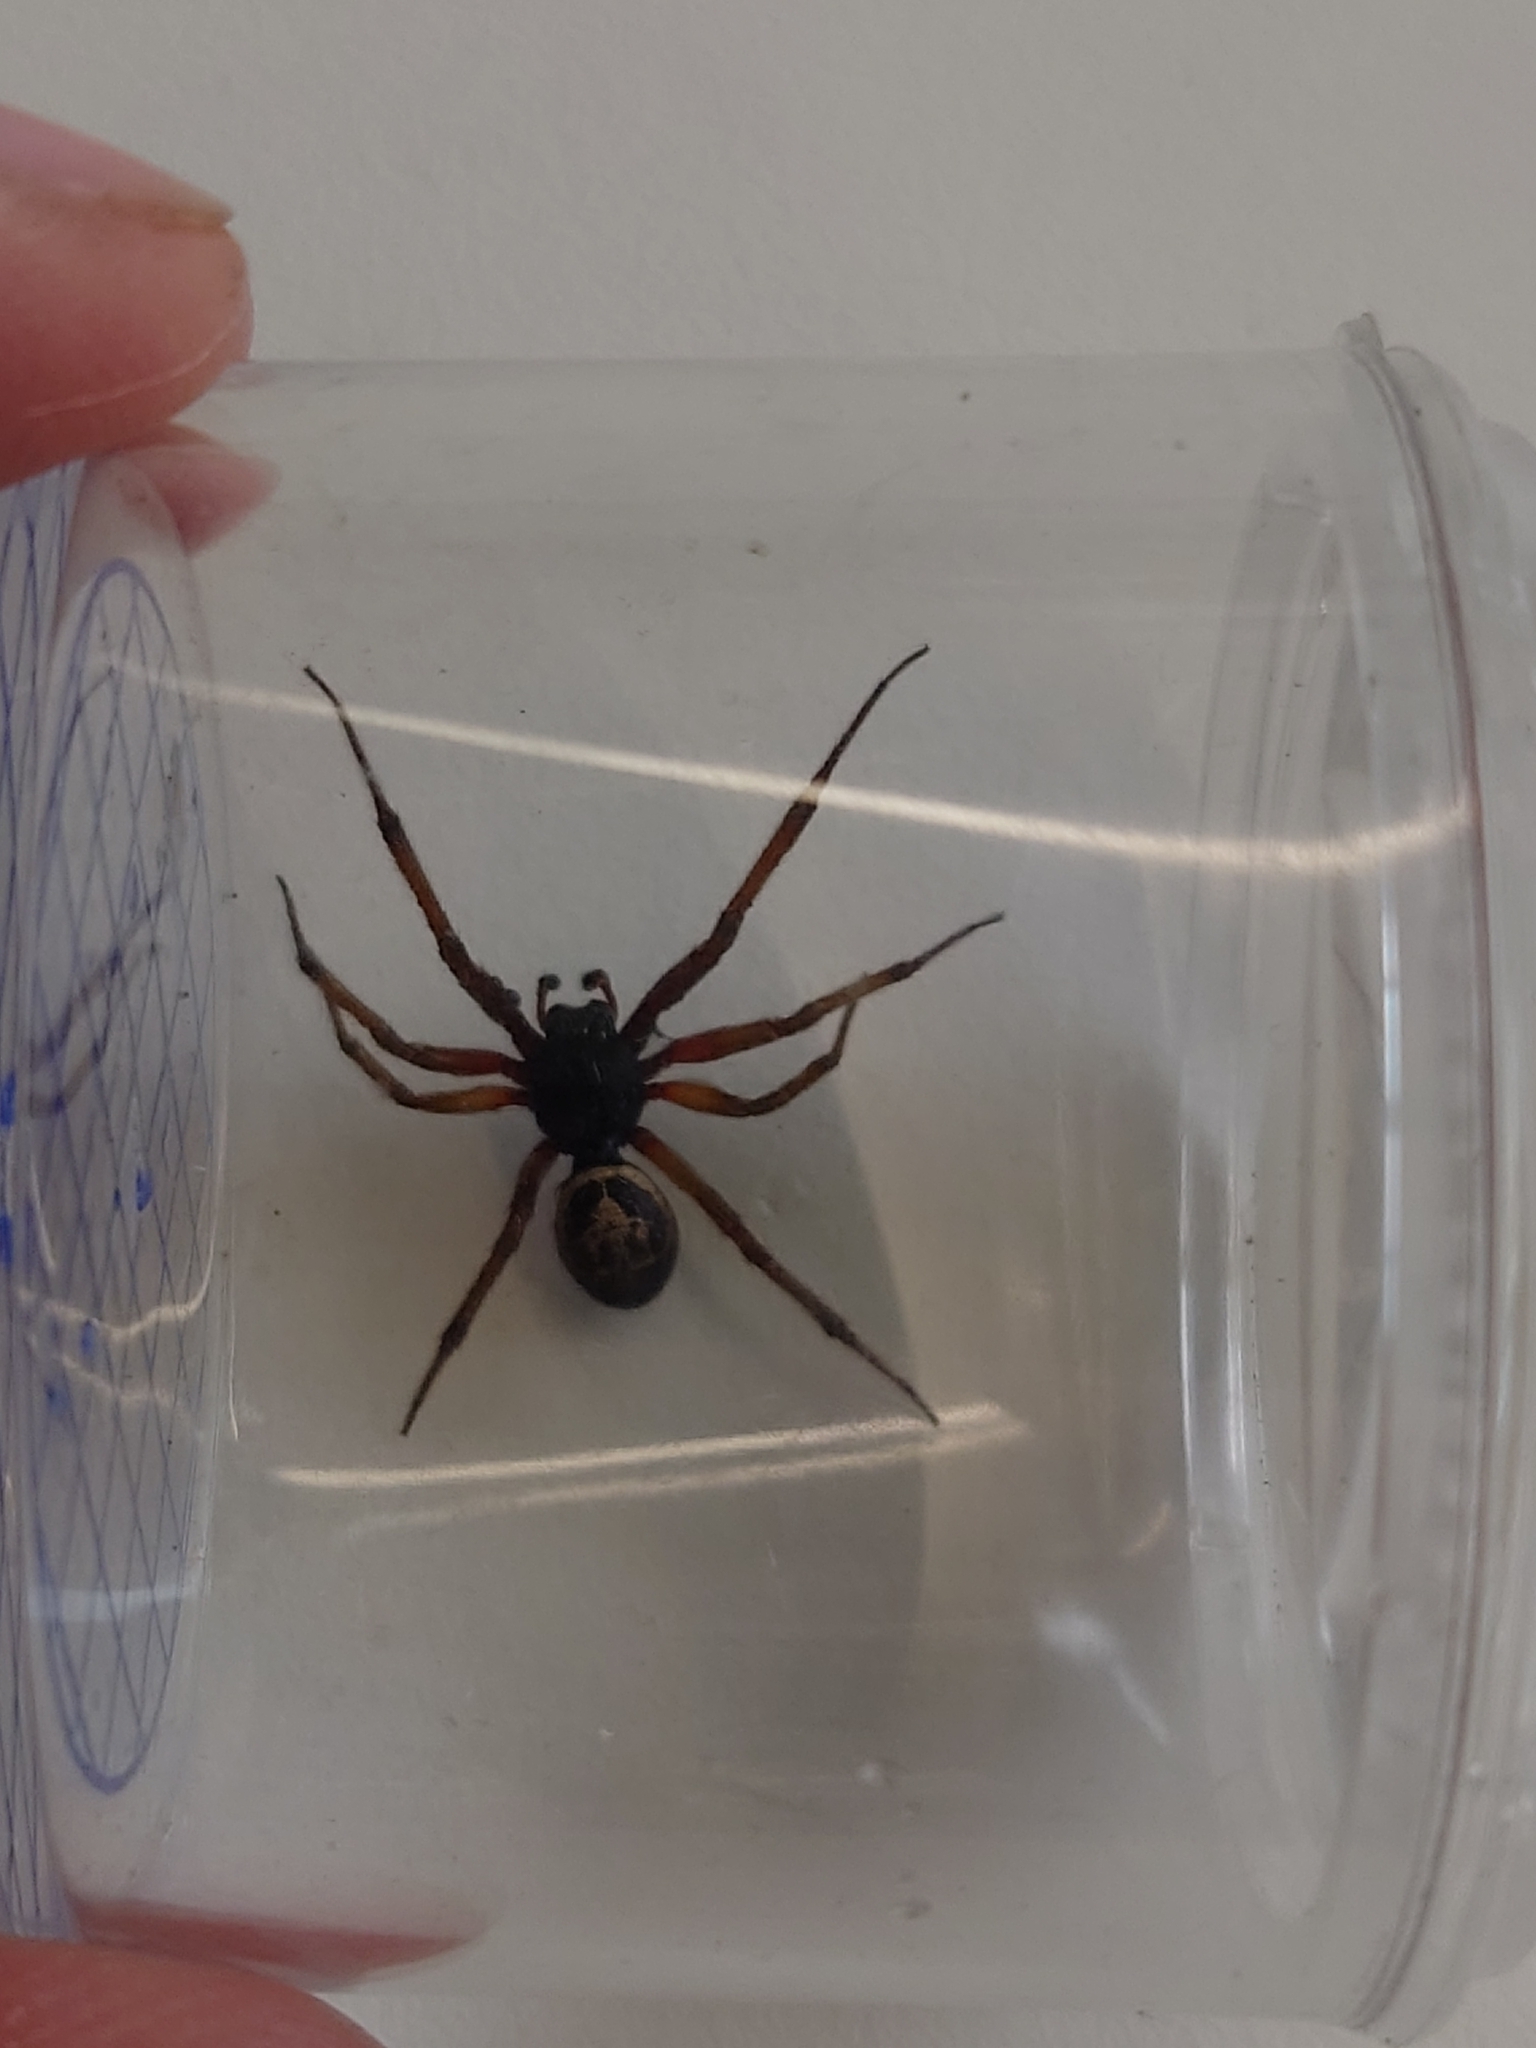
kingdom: Animalia
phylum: Arthropoda
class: Arachnida
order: Araneae
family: Theridiidae
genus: Steatoda
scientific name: Steatoda nobilis
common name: Cobweb weaver
